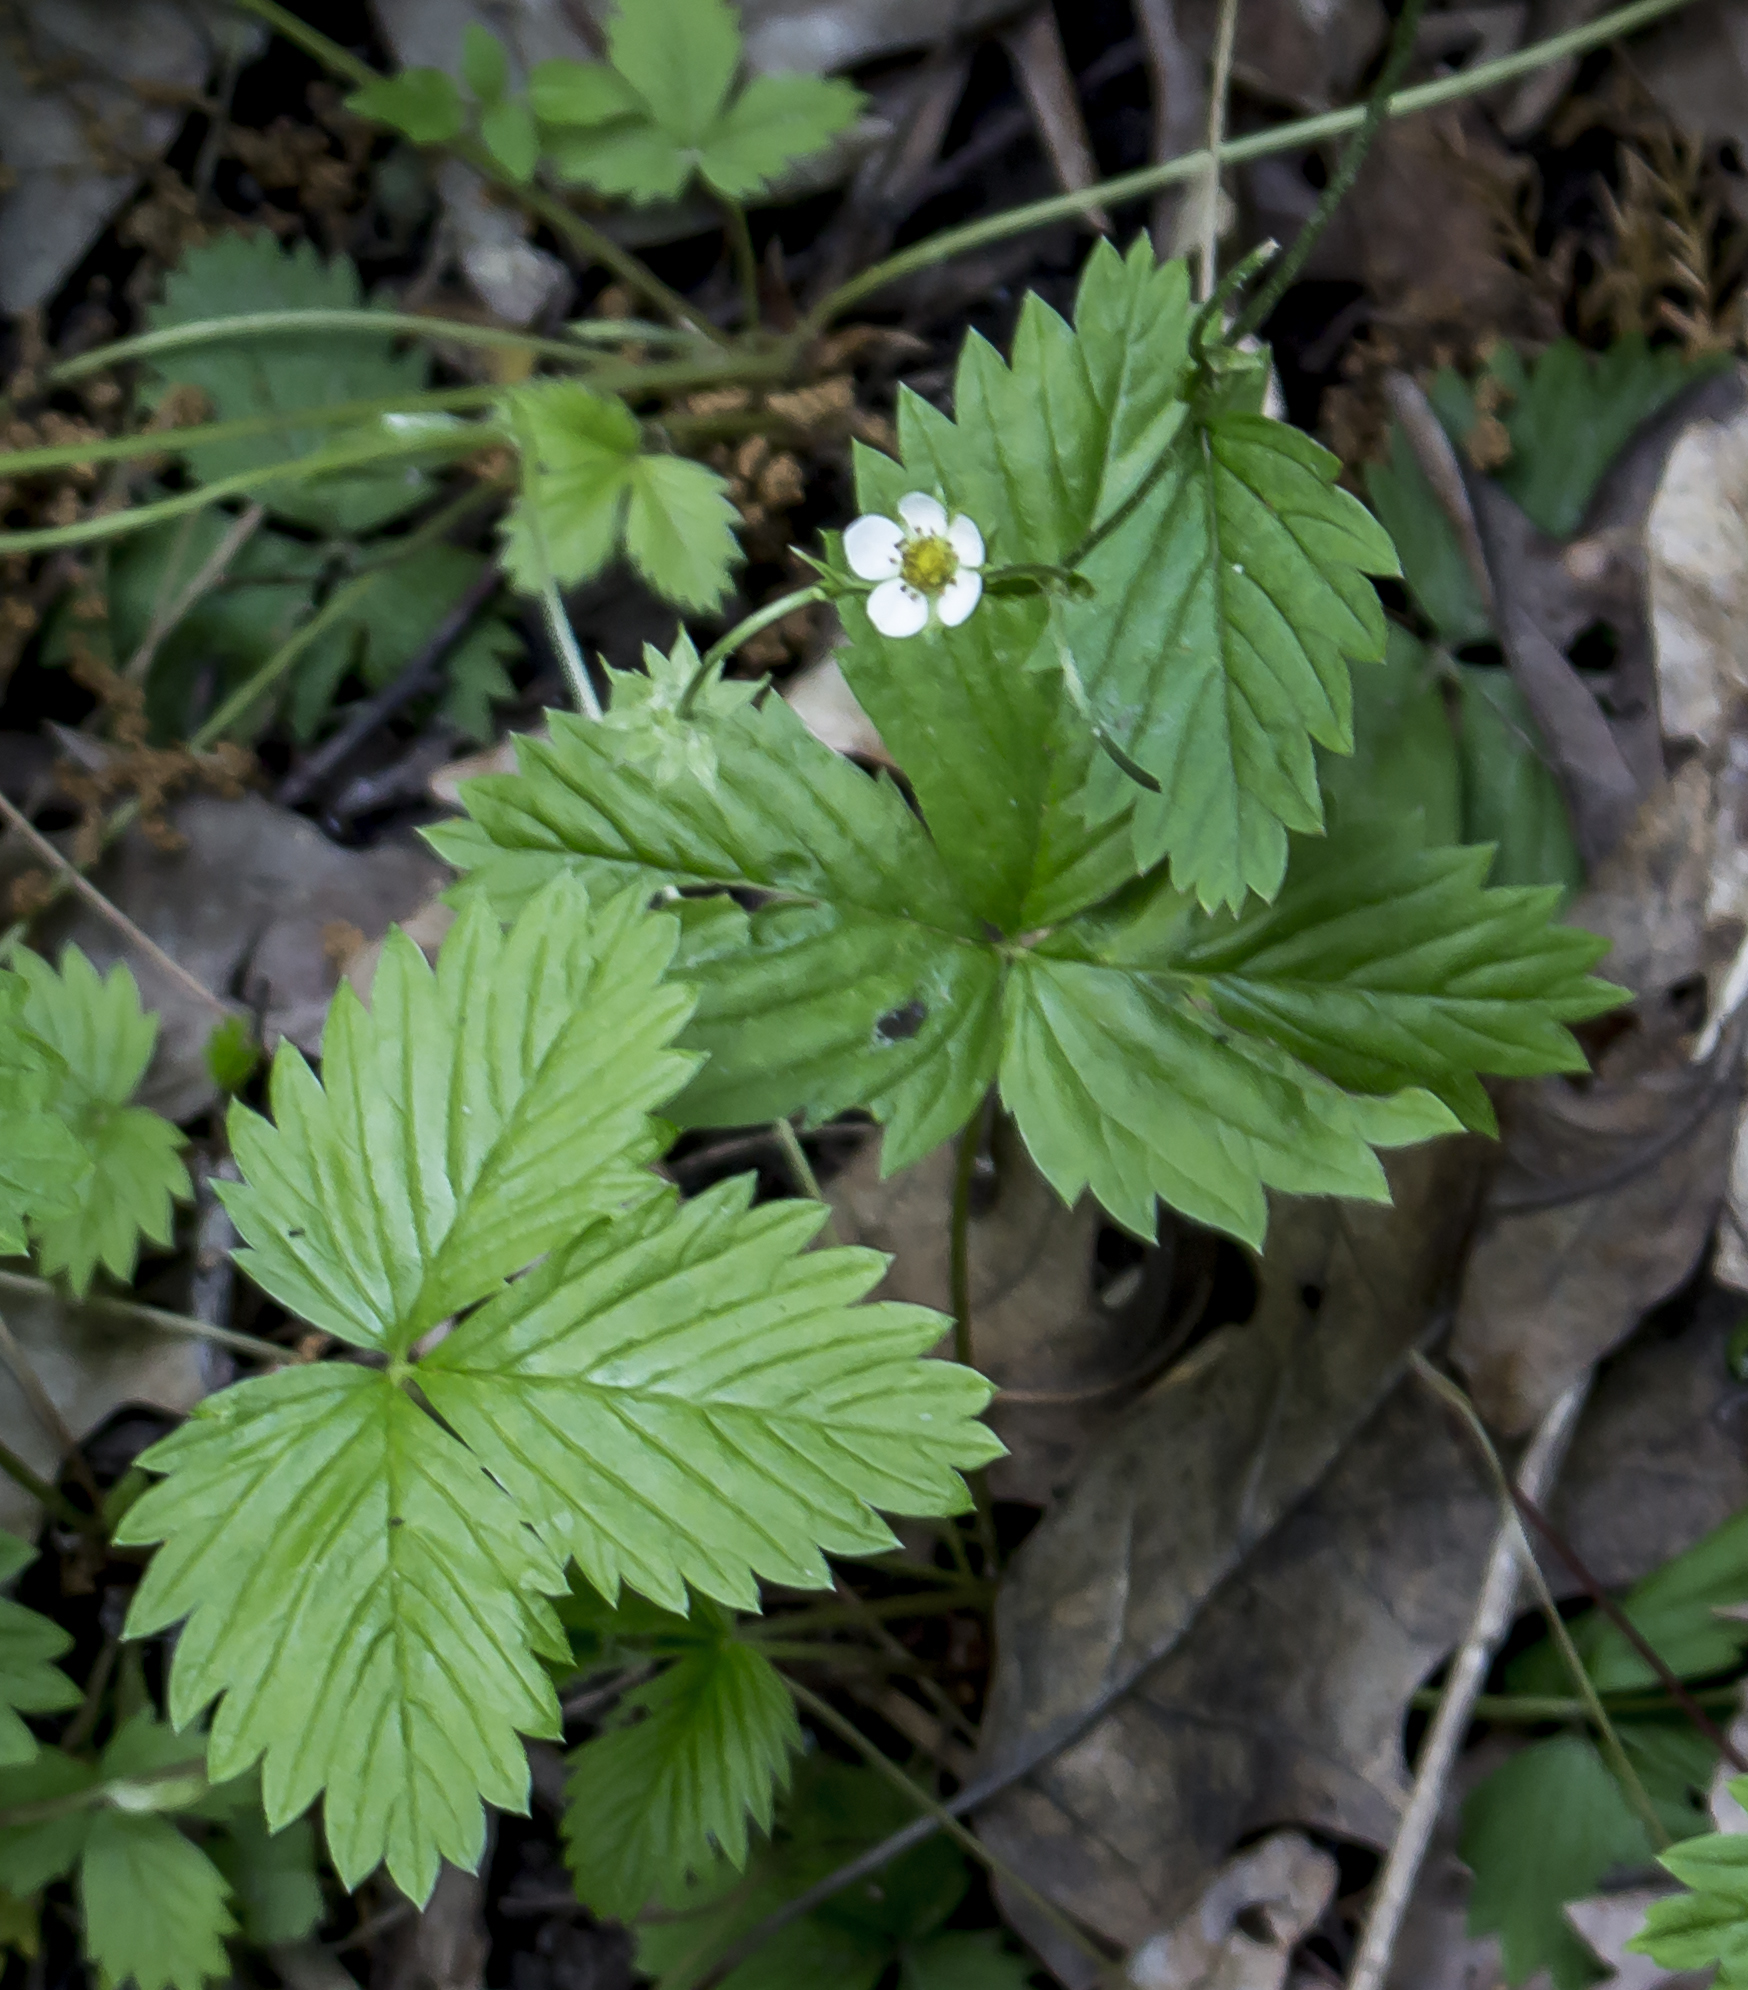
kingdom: Plantae
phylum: Tracheophyta
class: Magnoliopsida
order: Rosales
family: Rosaceae
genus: Fragaria
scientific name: Fragaria vesca
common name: Wild strawberry
